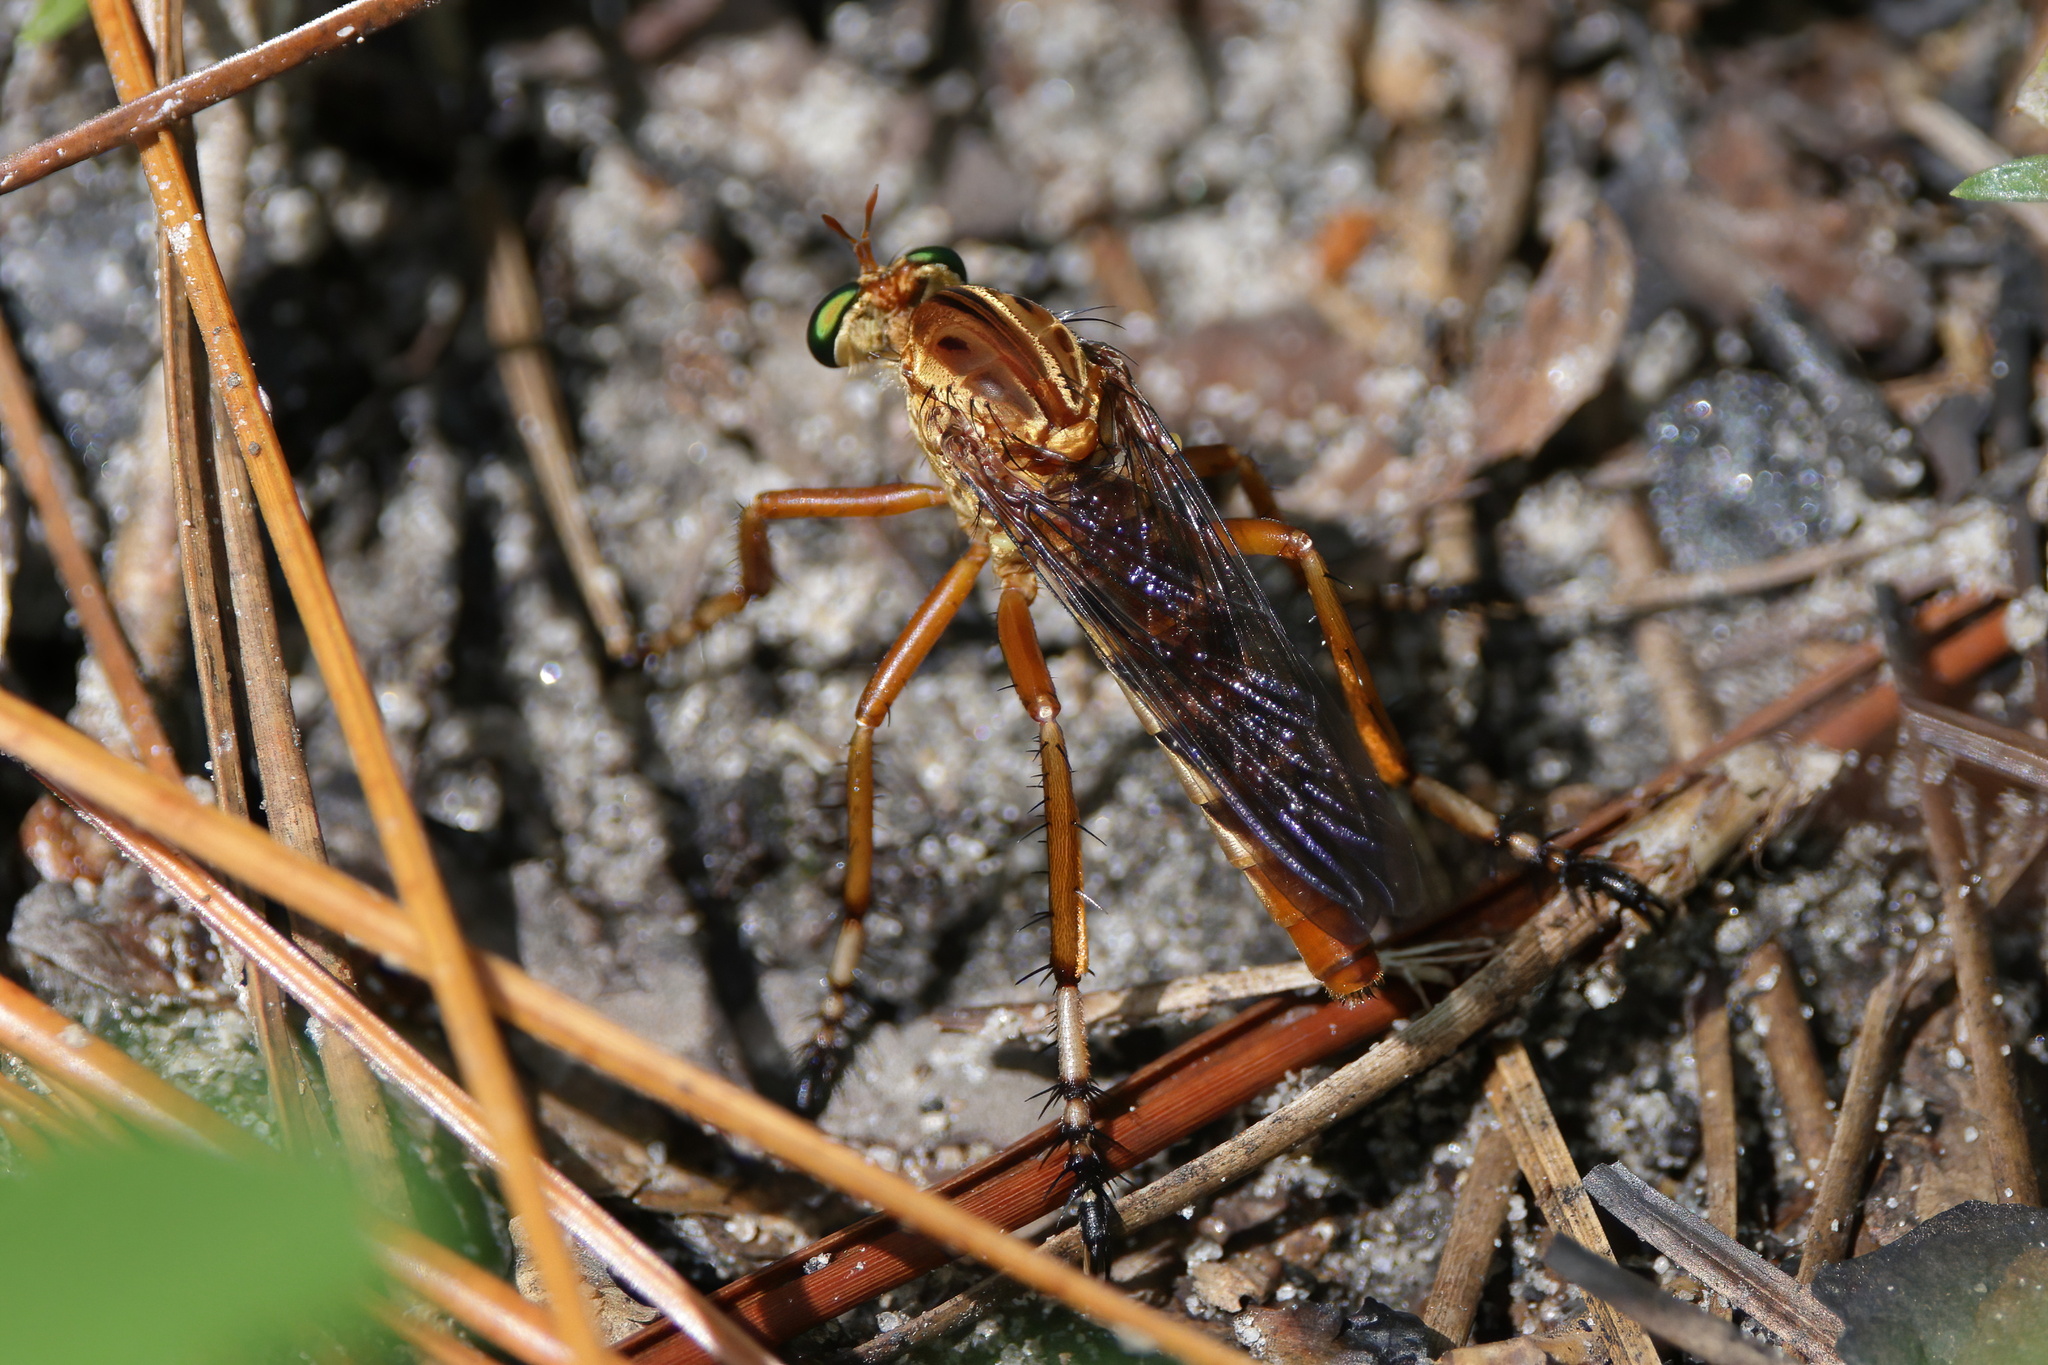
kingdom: Animalia
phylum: Arthropoda
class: Insecta
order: Diptera
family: Asilidae
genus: Diogmites
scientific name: Diogmites crudelis
